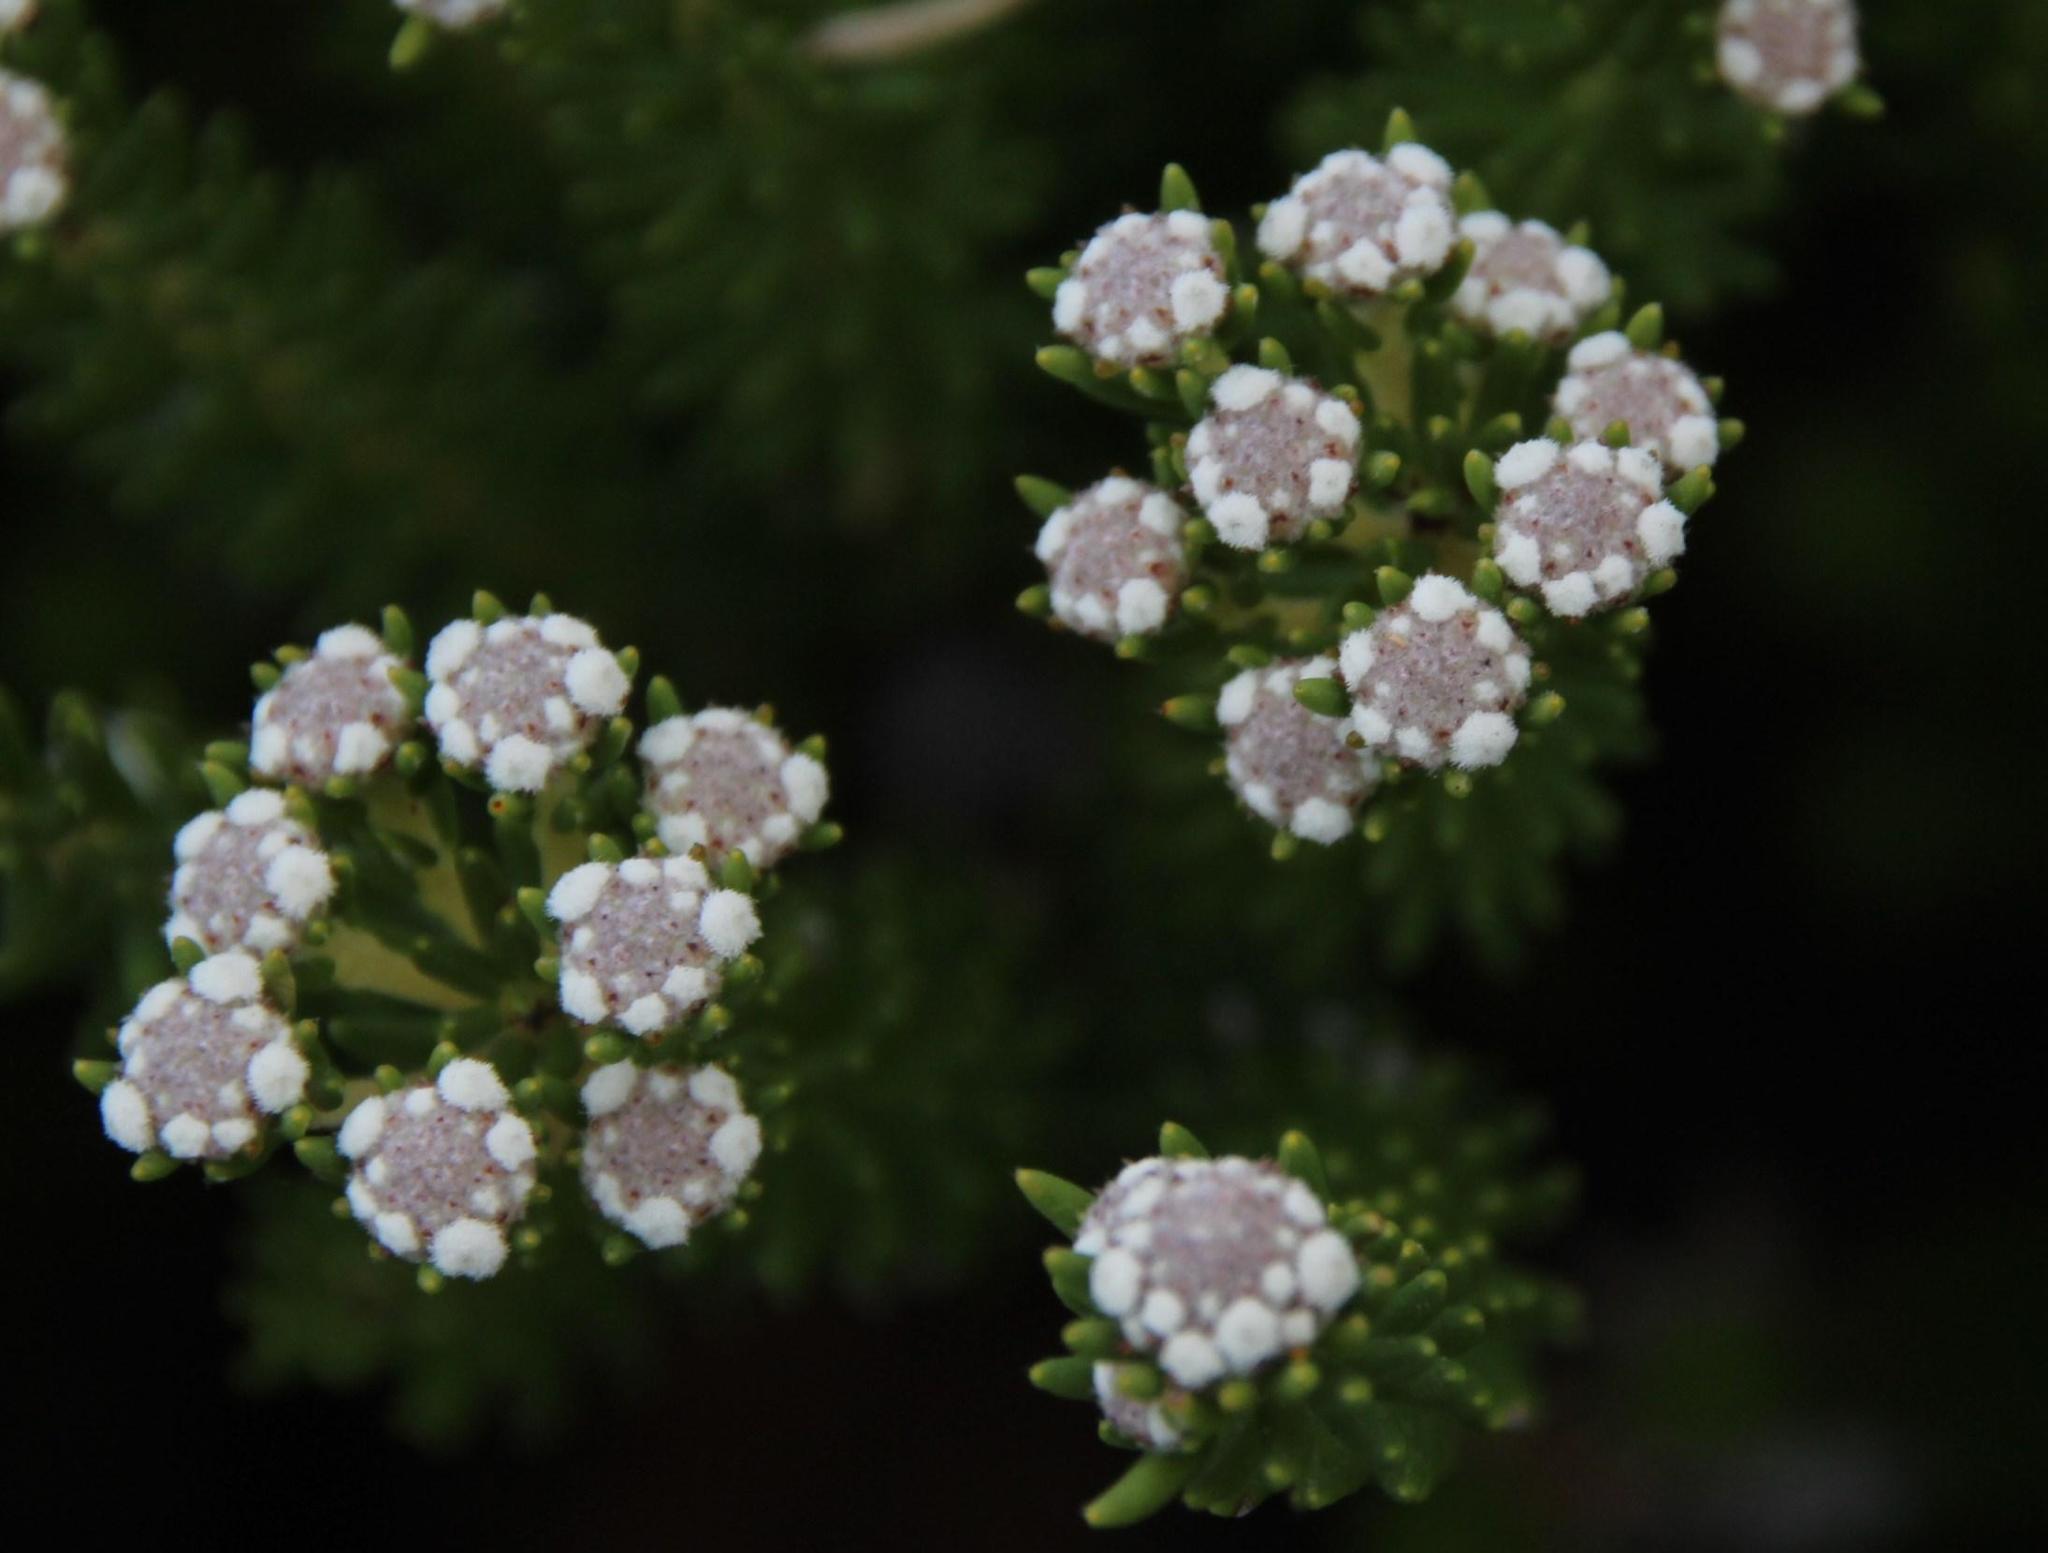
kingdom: Plantae
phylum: Tracheophyta
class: Magnoliopsida
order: Rosales
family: Rhamnaceae
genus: Phylica
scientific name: Phylica ericoides
